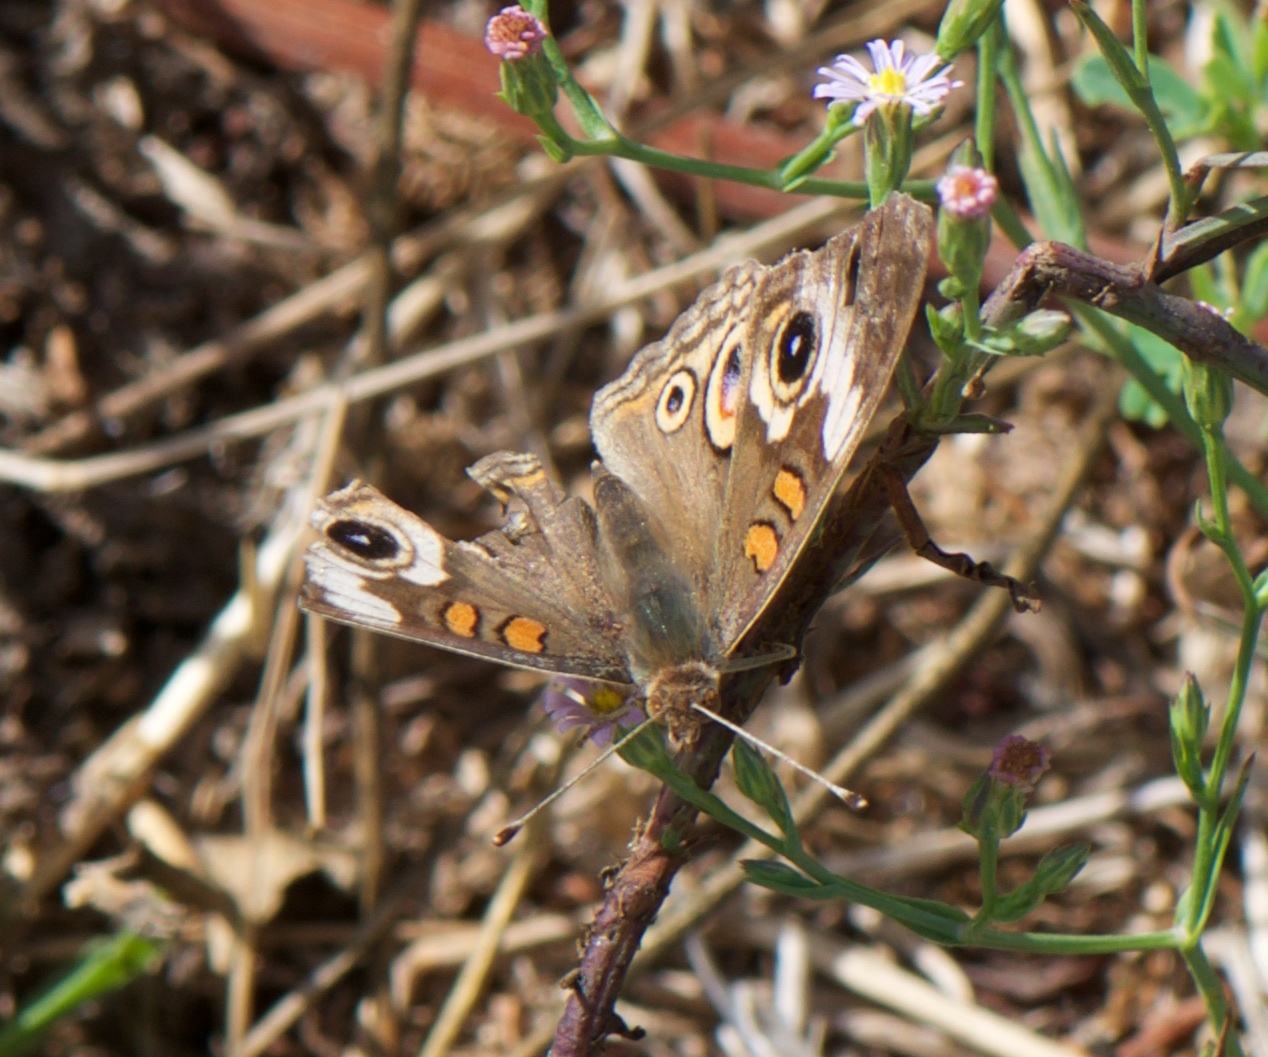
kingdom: Animalia
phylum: Arthropoda
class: Insecta
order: Lepidoptera
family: Nymphalidae
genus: Junonia
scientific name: Junonia grisea
